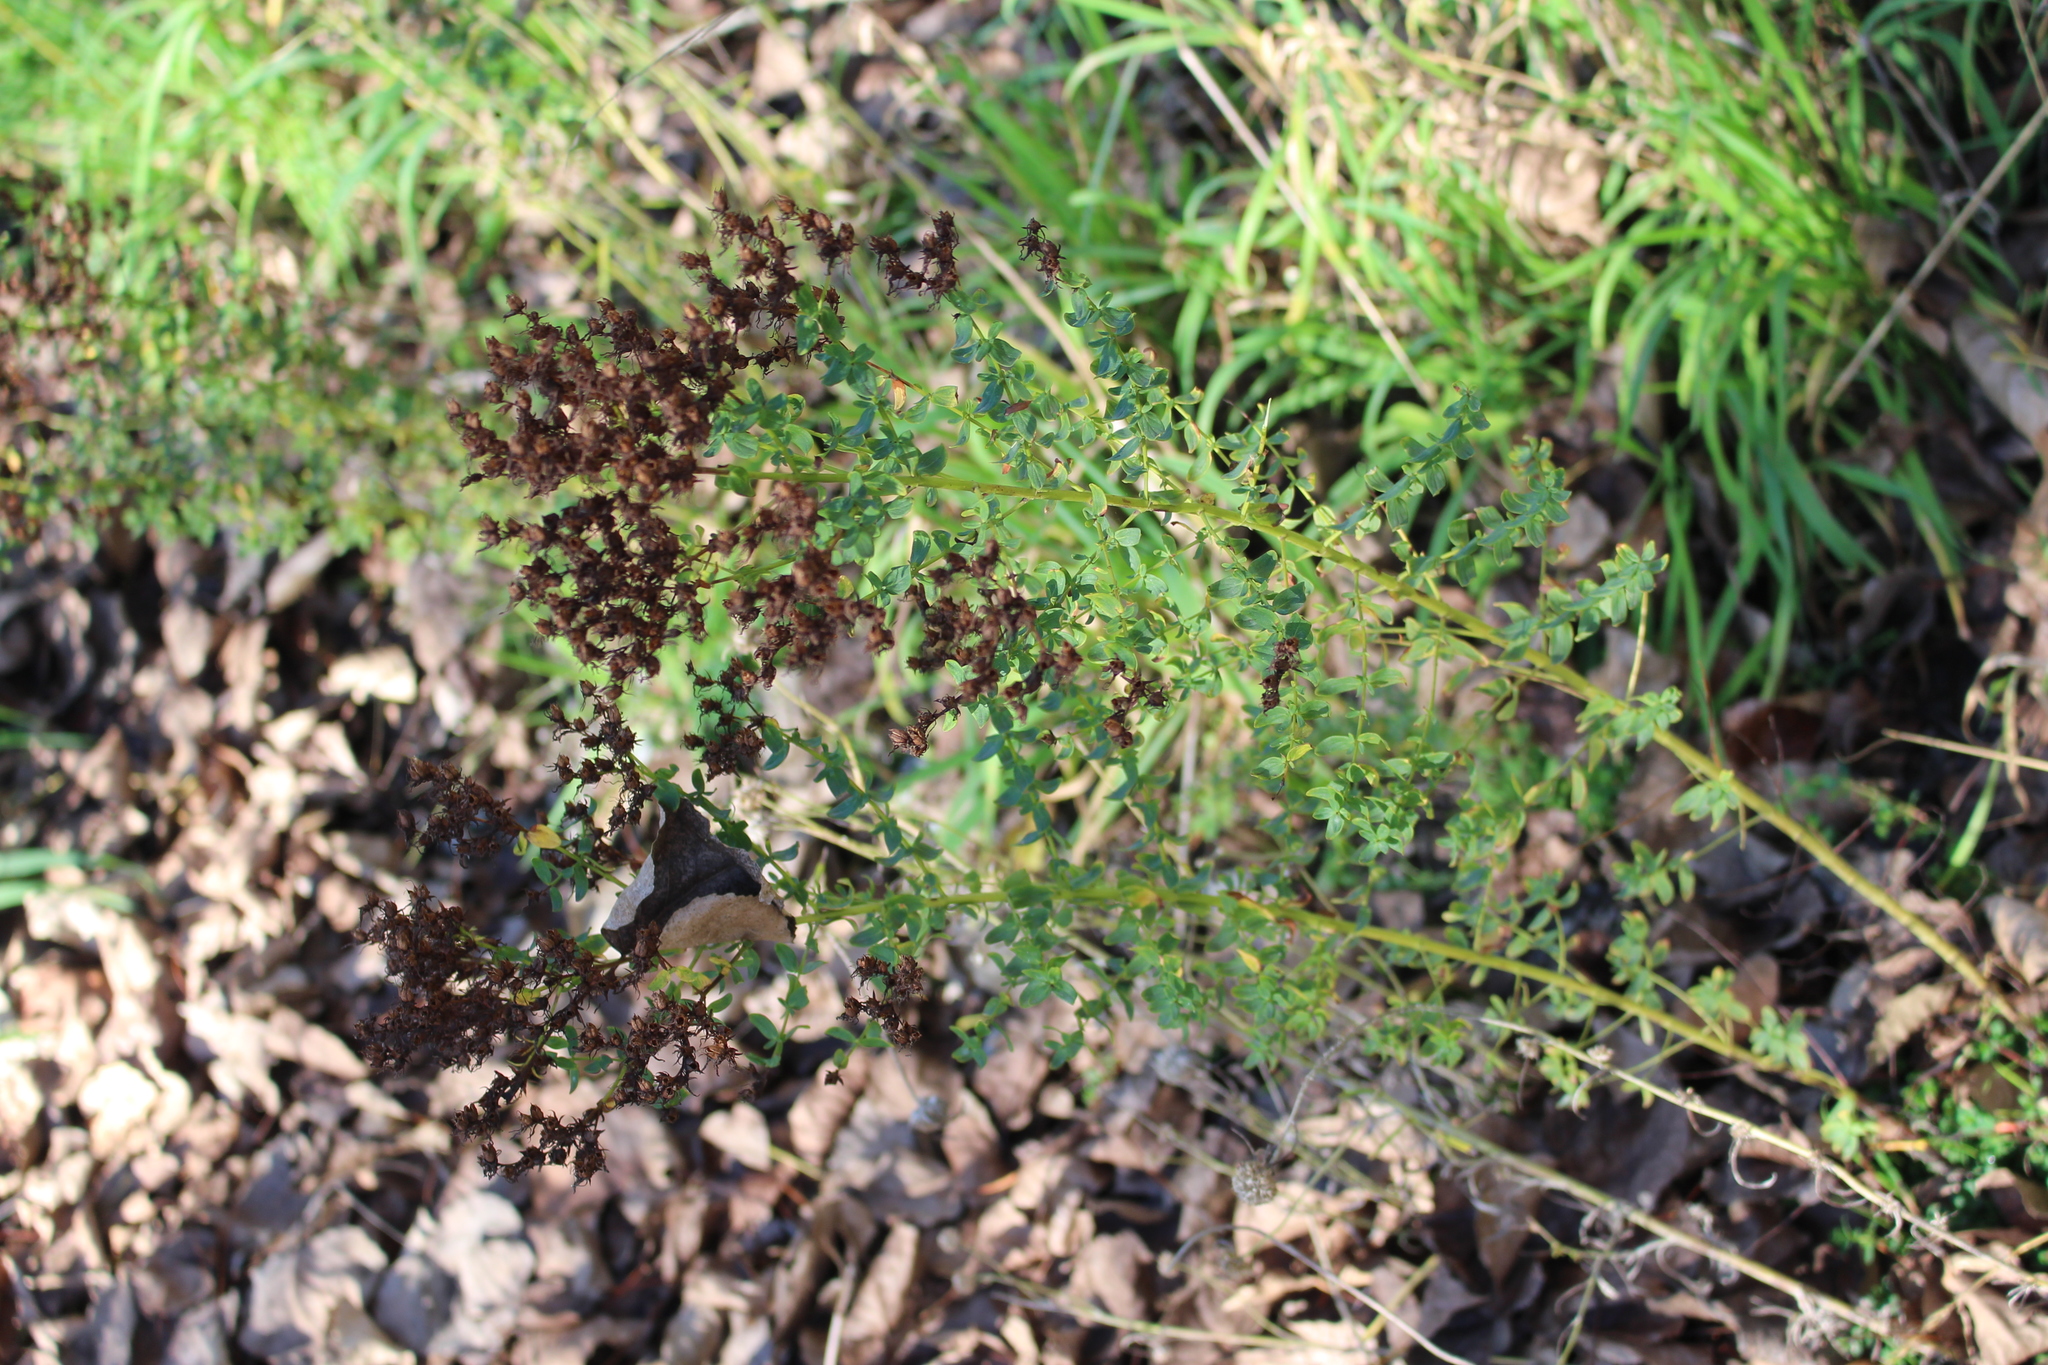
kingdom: Plantae
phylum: Tracheophyta
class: Magnoliopsida
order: Malpighiales
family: Hypericaceae
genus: Hypericum
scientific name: Hypericum perforatum
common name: Common st. johnswort
